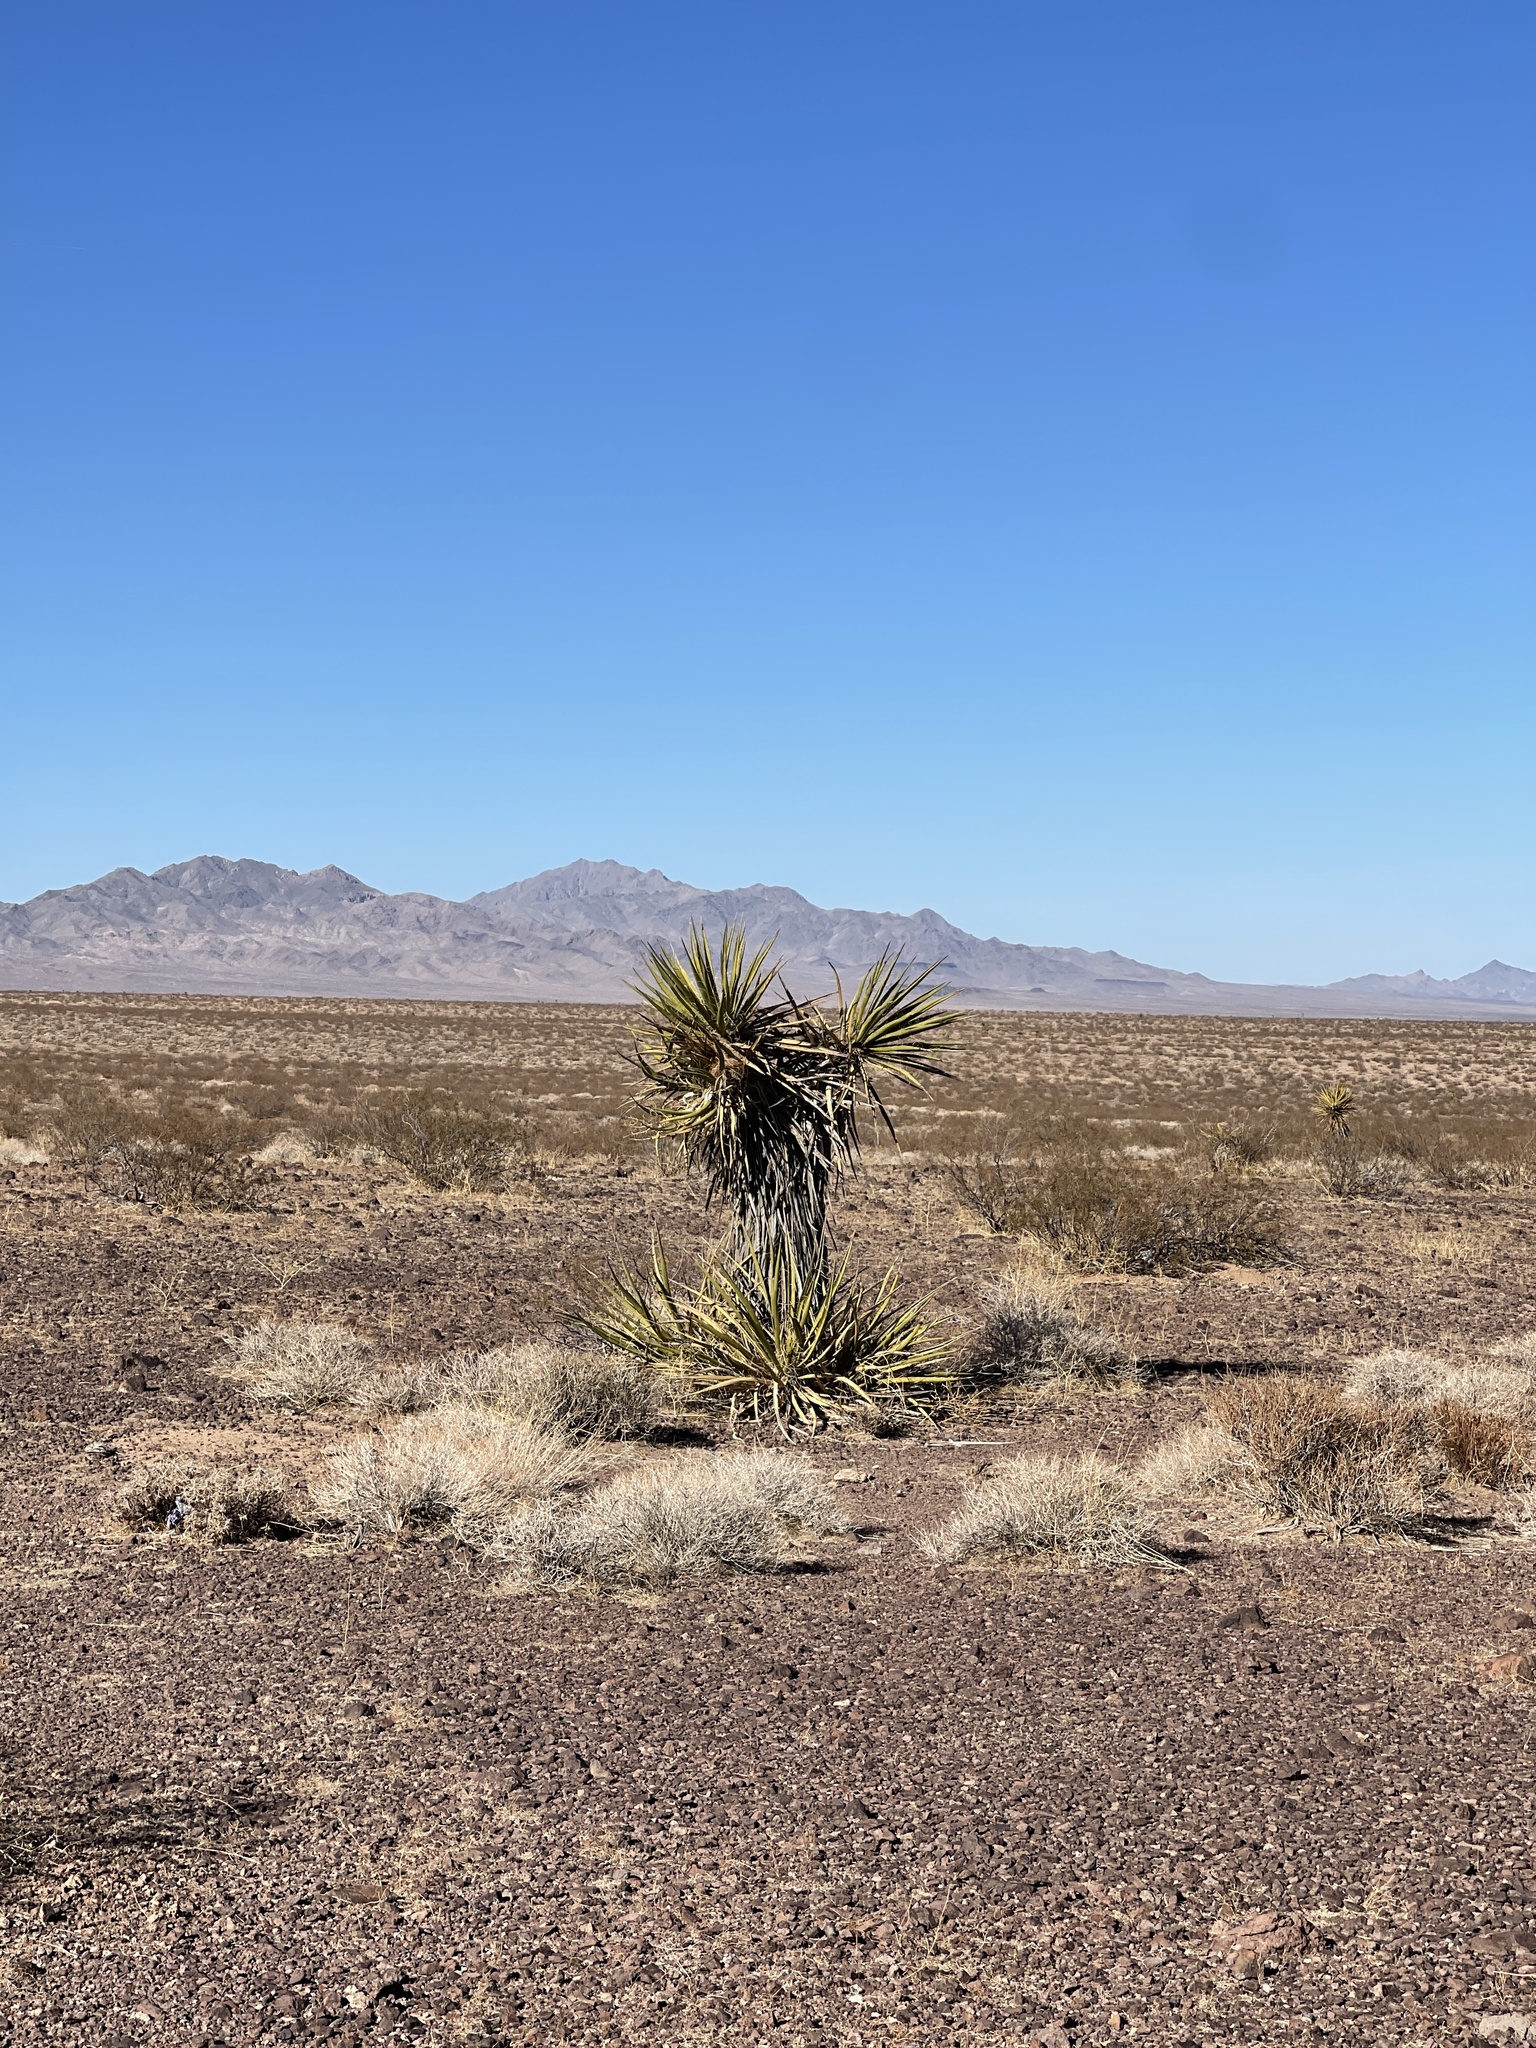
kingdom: Plantae
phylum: Tracheophyta
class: Liliopsida
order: Asparagales
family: Asparagaceae
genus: Yucca
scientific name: Yucca schidigera
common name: Mojave yucca
